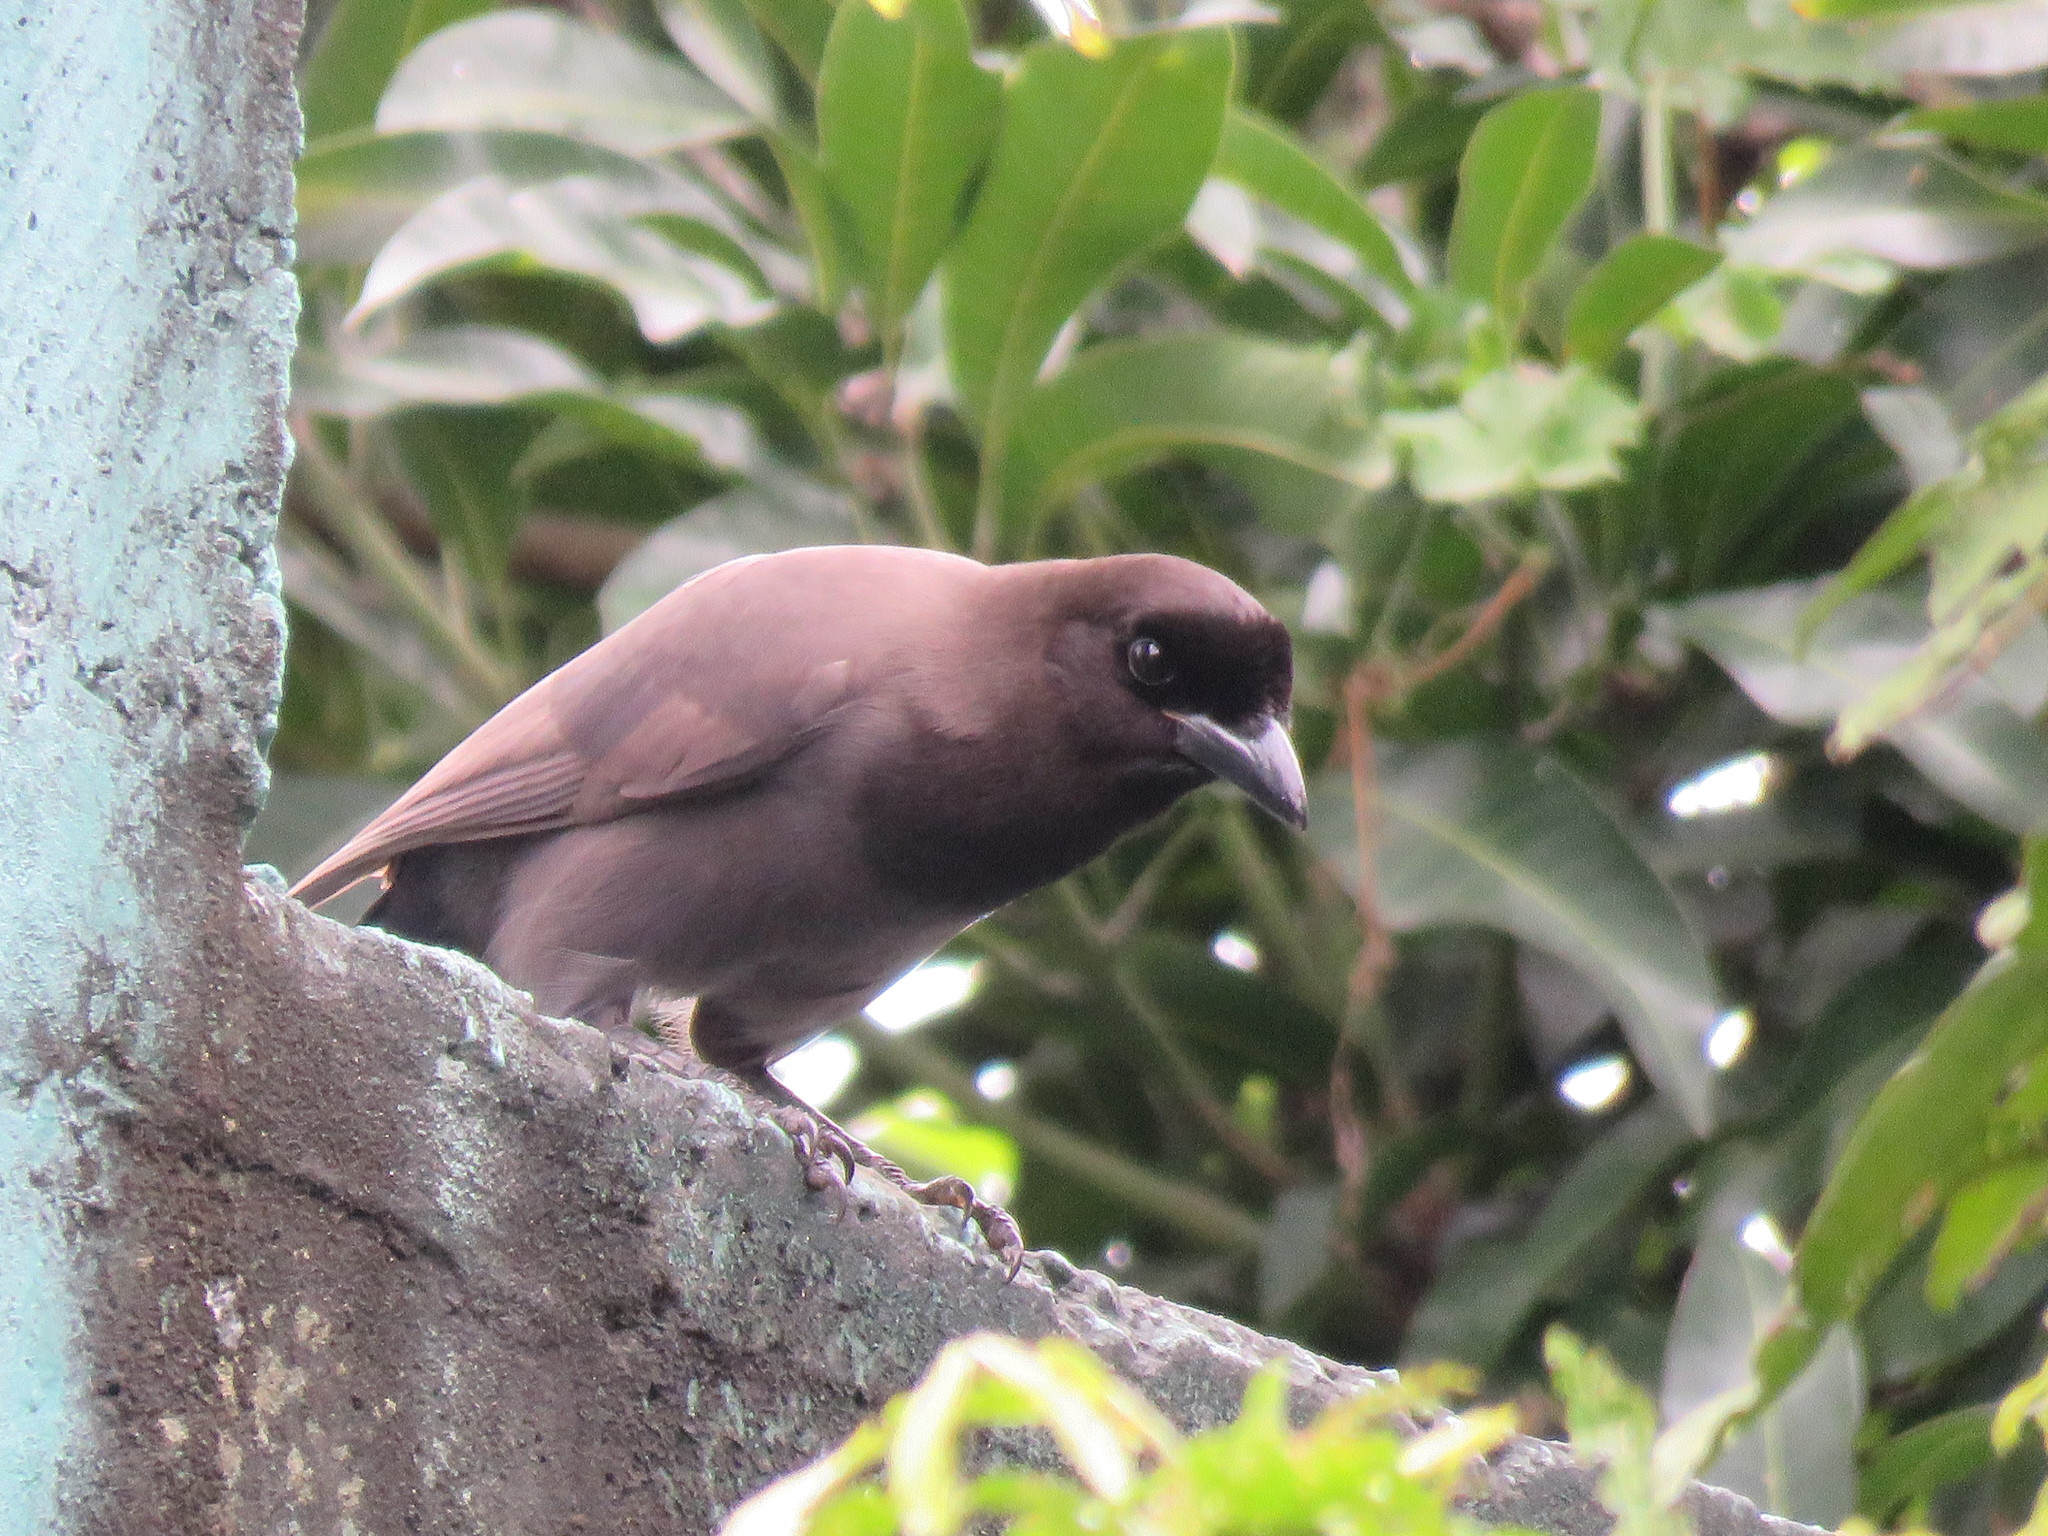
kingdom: Animalia
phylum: Chordata
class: Aves
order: Passeriformes
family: Corvidae
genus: Cyanocorax
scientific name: Cyanocorax cyanomelas
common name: Purplish jay
